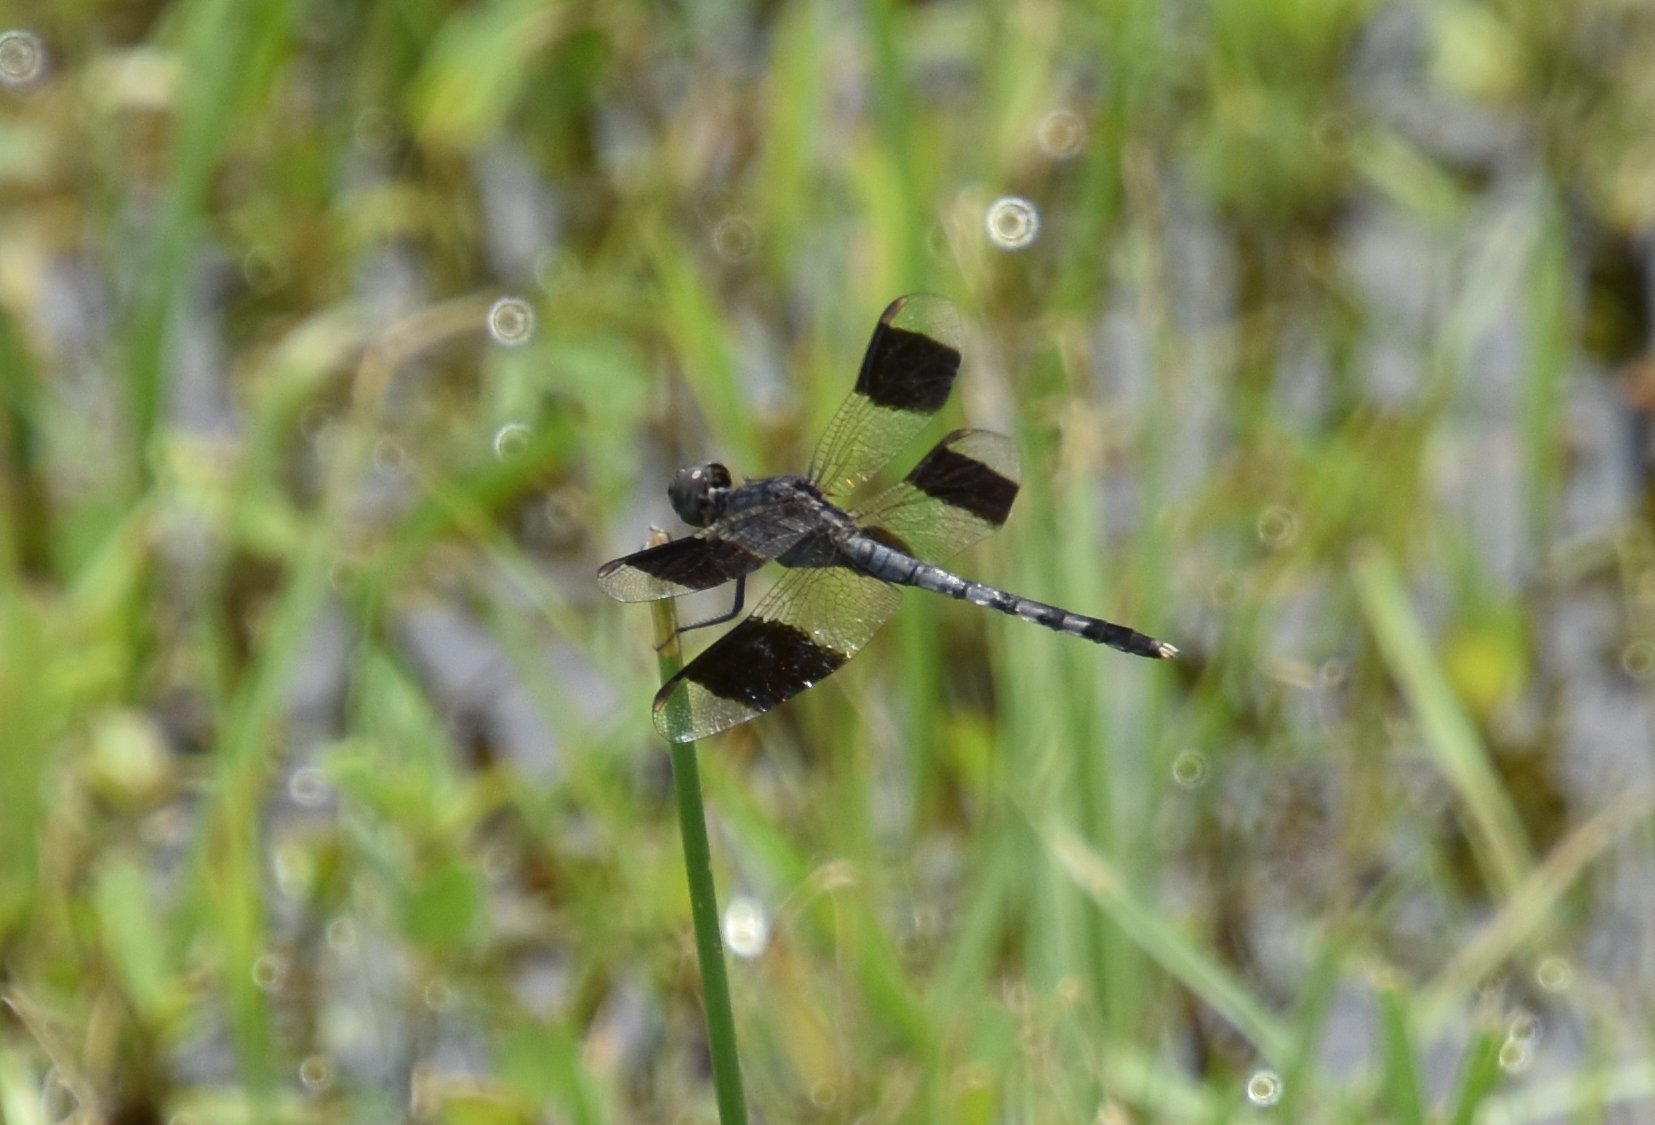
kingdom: Animalia
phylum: Arthropoda
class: Insecta
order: Odonata
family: Libellulidae
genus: Erythrodiplax
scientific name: Erythrodiplax umbrata
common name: Band-winged dragonlet
